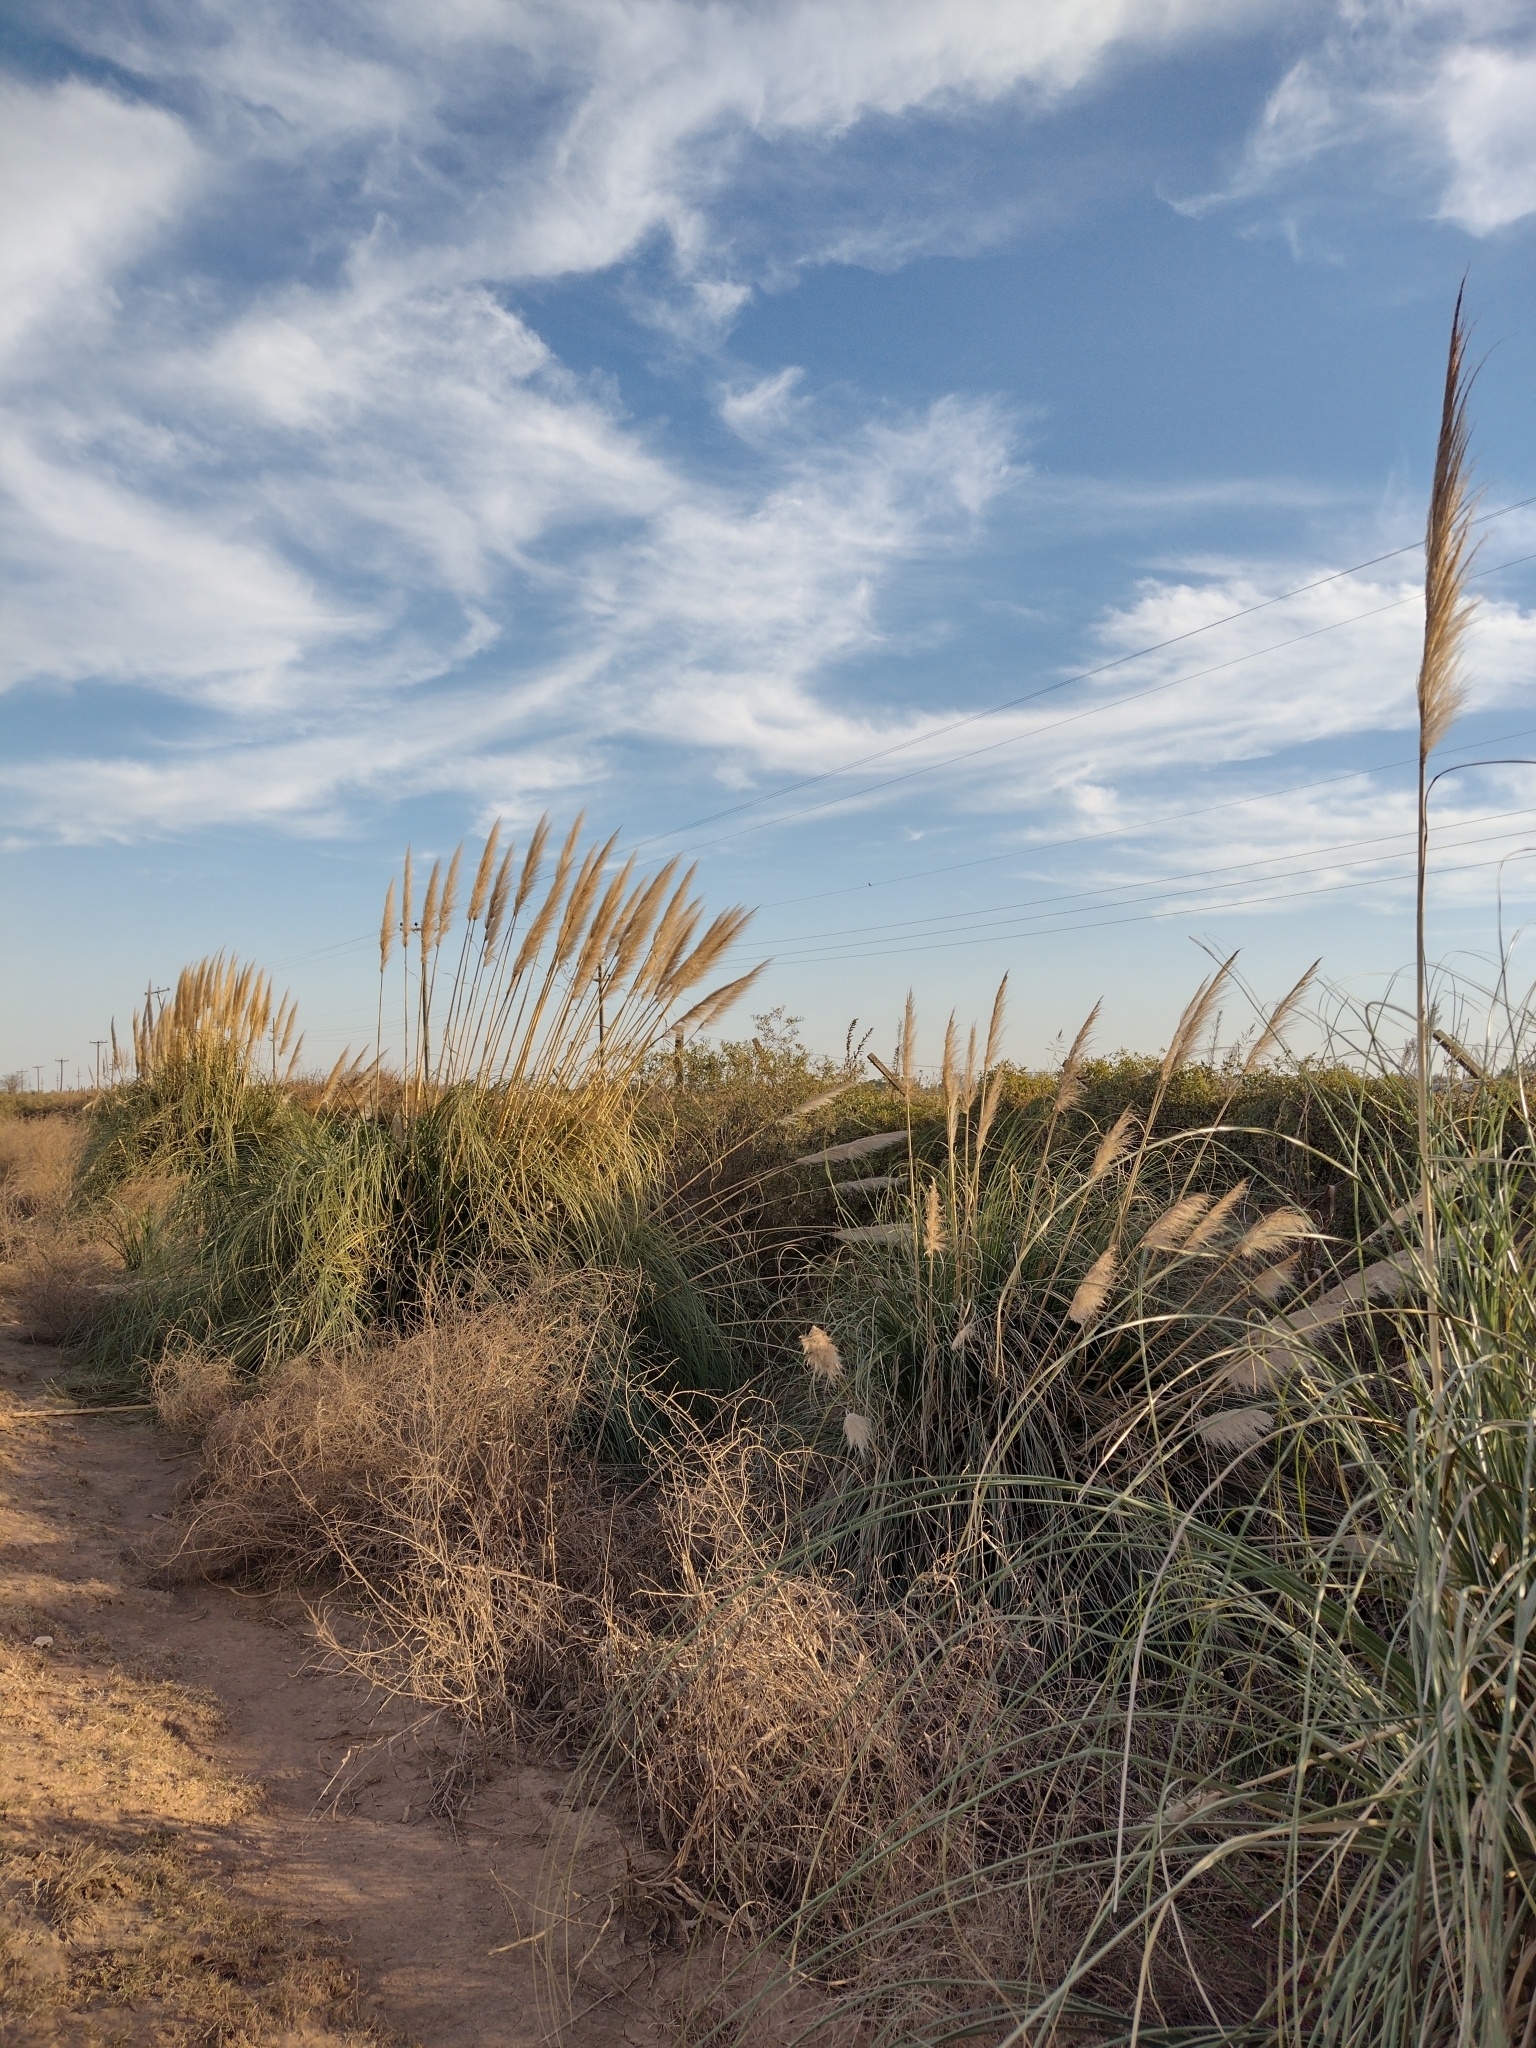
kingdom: Plantae
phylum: Tracheophyta
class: Liliopsida
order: Poales
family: Poaceae
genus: Cortaderia
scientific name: Cortaderia selloana
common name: Uruguayan pampas grass
